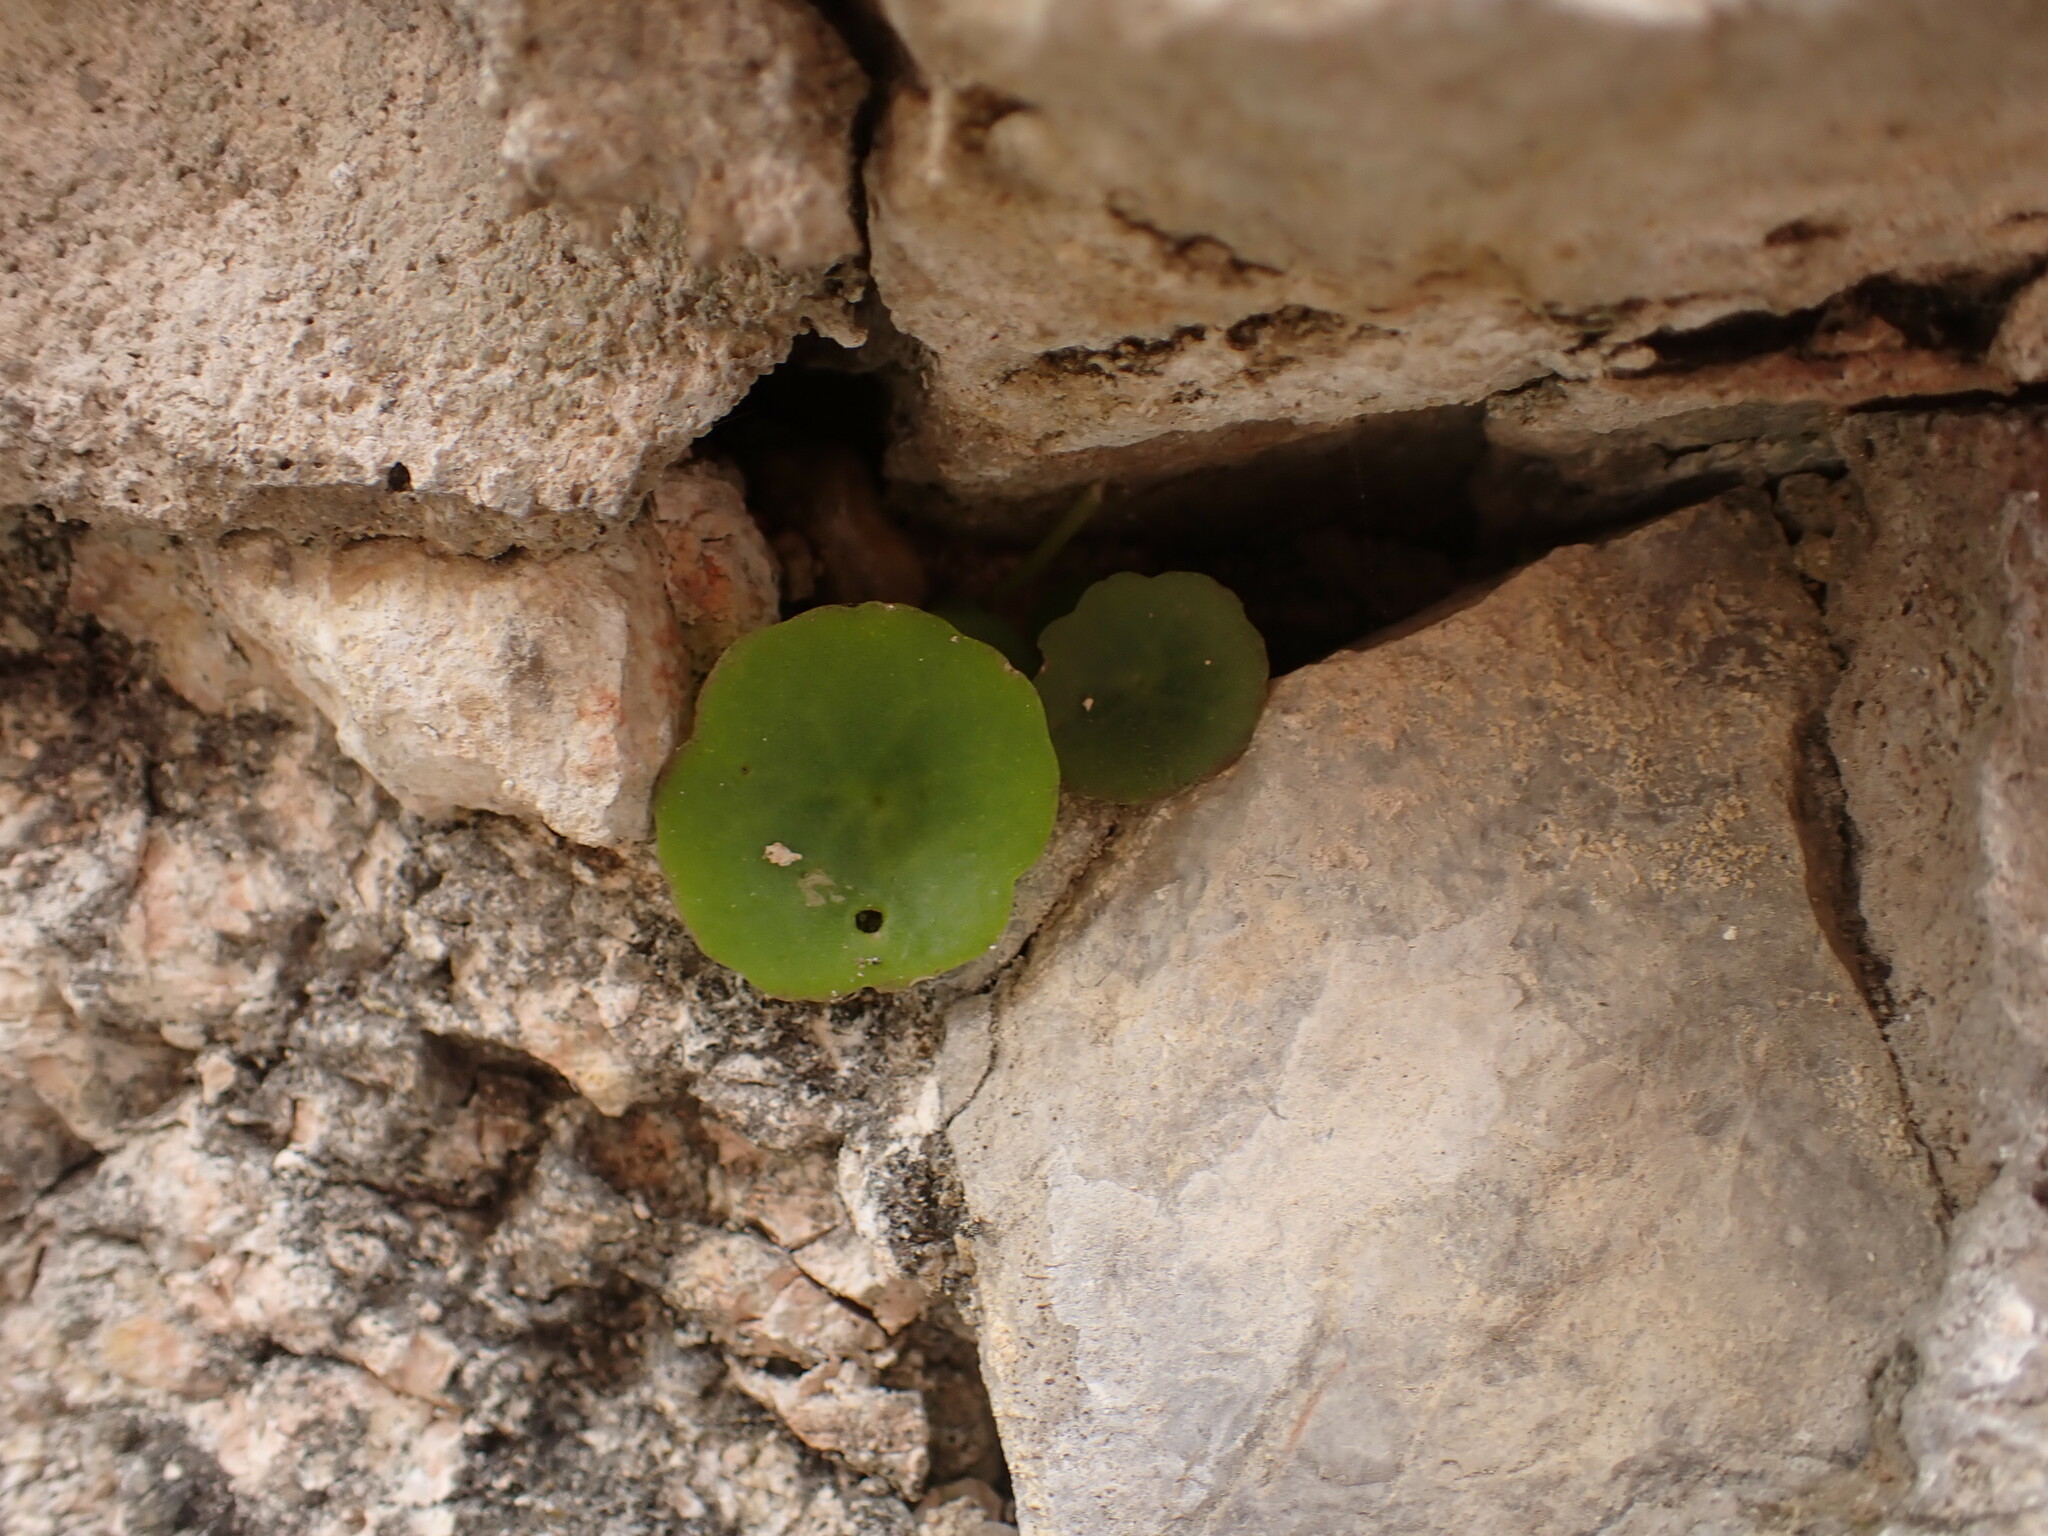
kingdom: Plantae
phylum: Tracheophyta
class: Magnoliopsida
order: Saxifragales
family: Crassulaceae
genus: Umbilicus
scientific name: Umbilicus rupestris
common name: Navelwort
